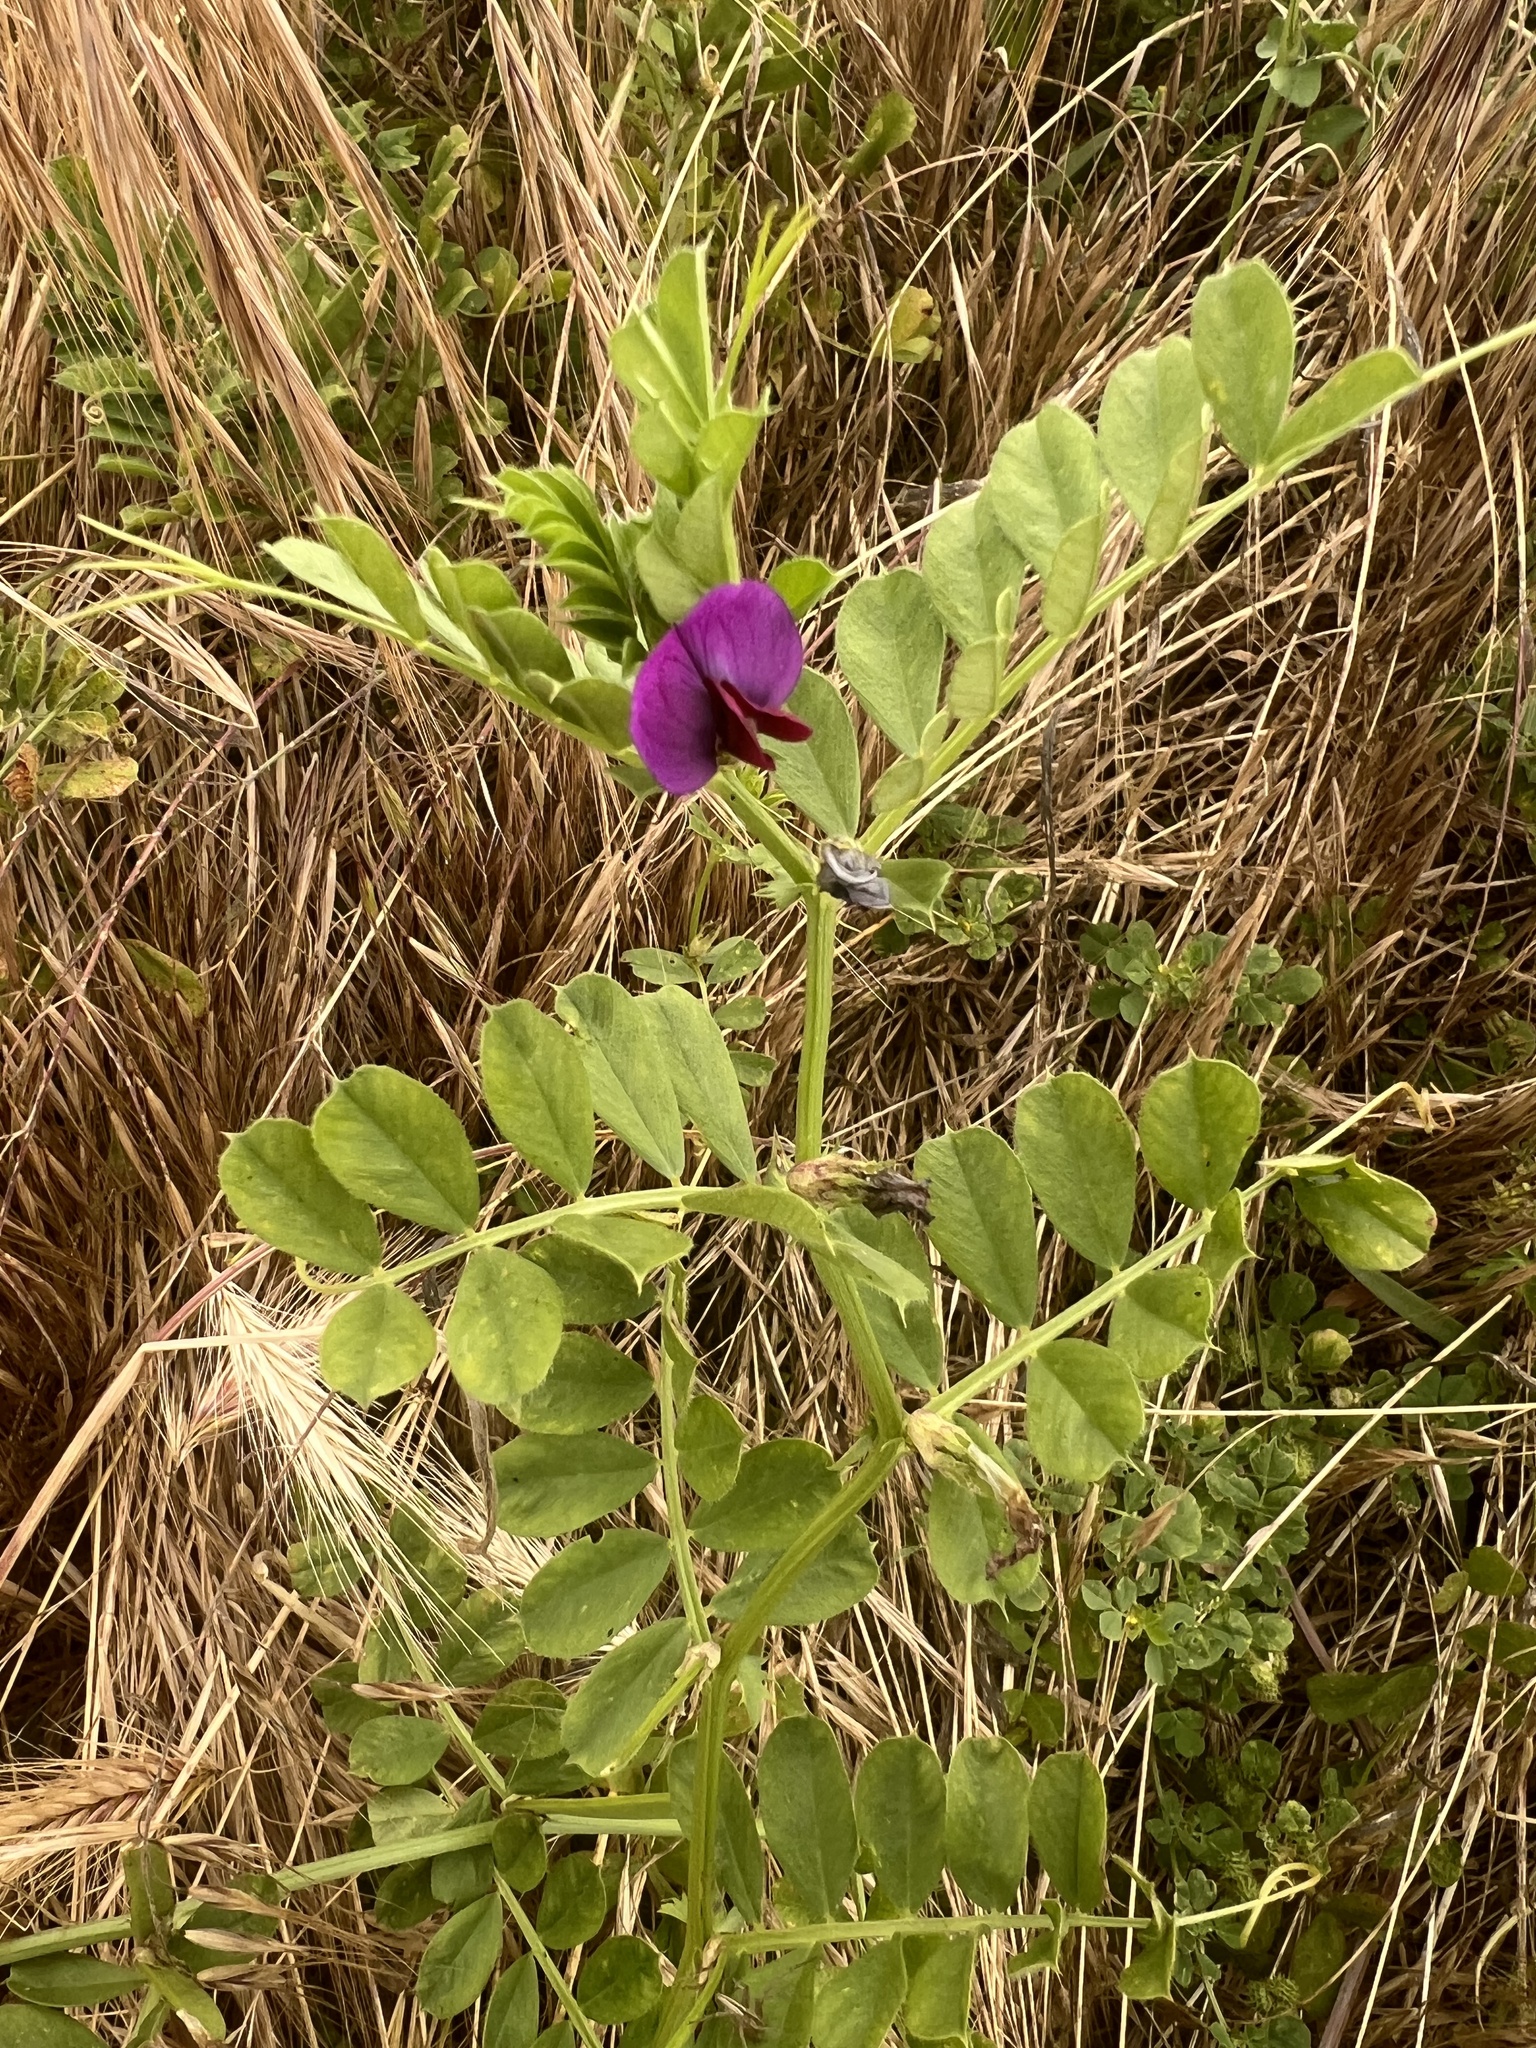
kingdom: Plantae
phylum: Tracheophyta
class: Magnoliopsida
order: Fabales
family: Fabaceae
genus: Vicia
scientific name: Vicia sativa
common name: Garden vetch
